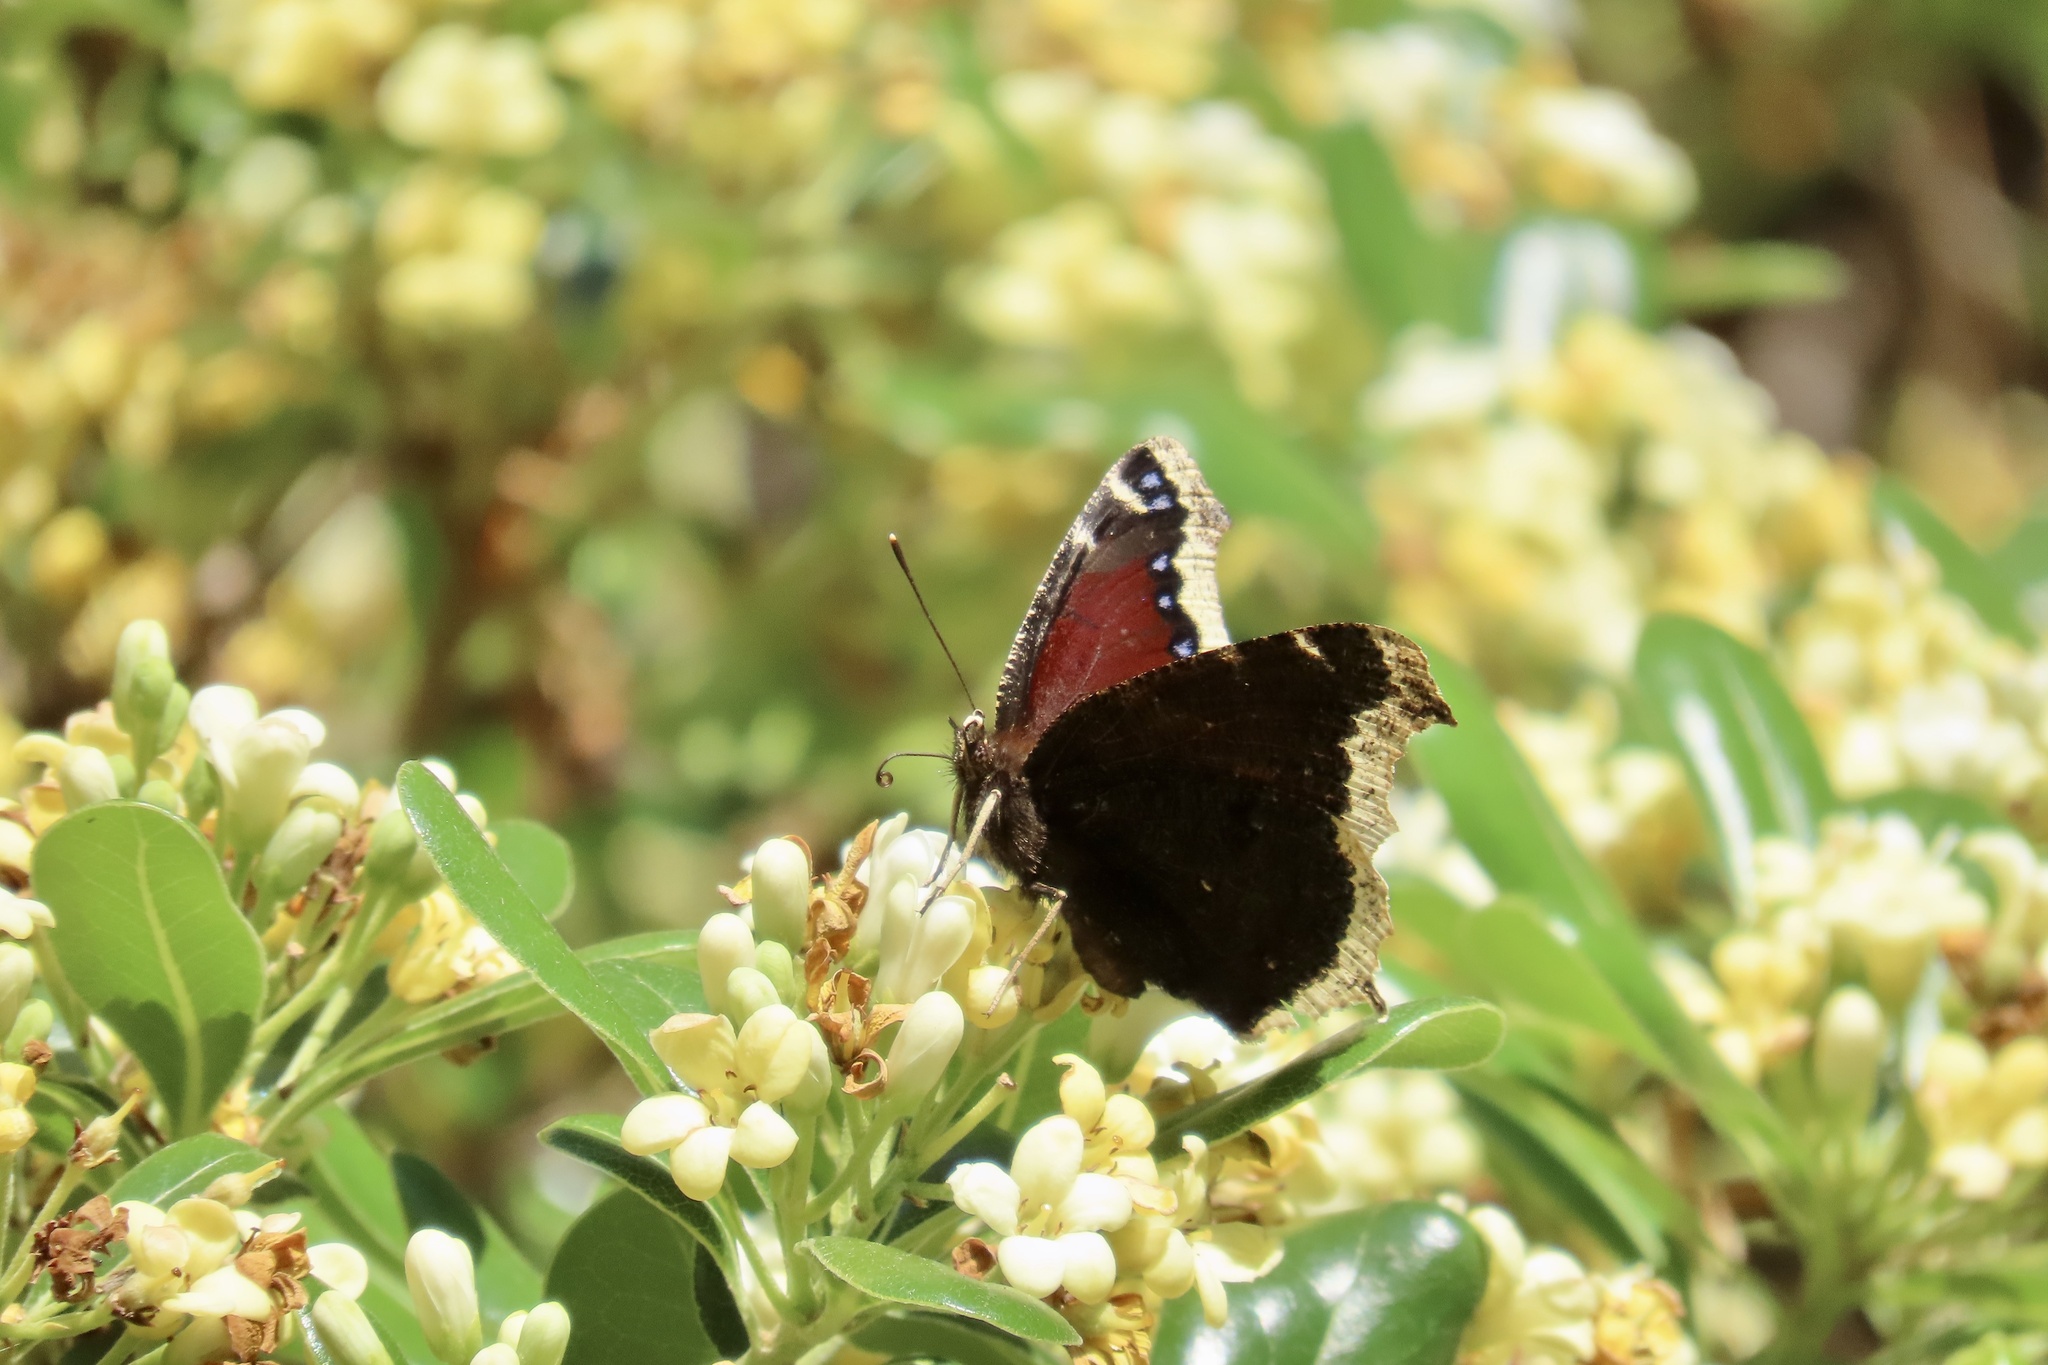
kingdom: Animalia
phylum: Arthropoda
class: Insecta
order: Lepidoptera
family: Nymphalidae
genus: Nymphalis
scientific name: Nymphalis antiopa
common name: Camberwell beauty
